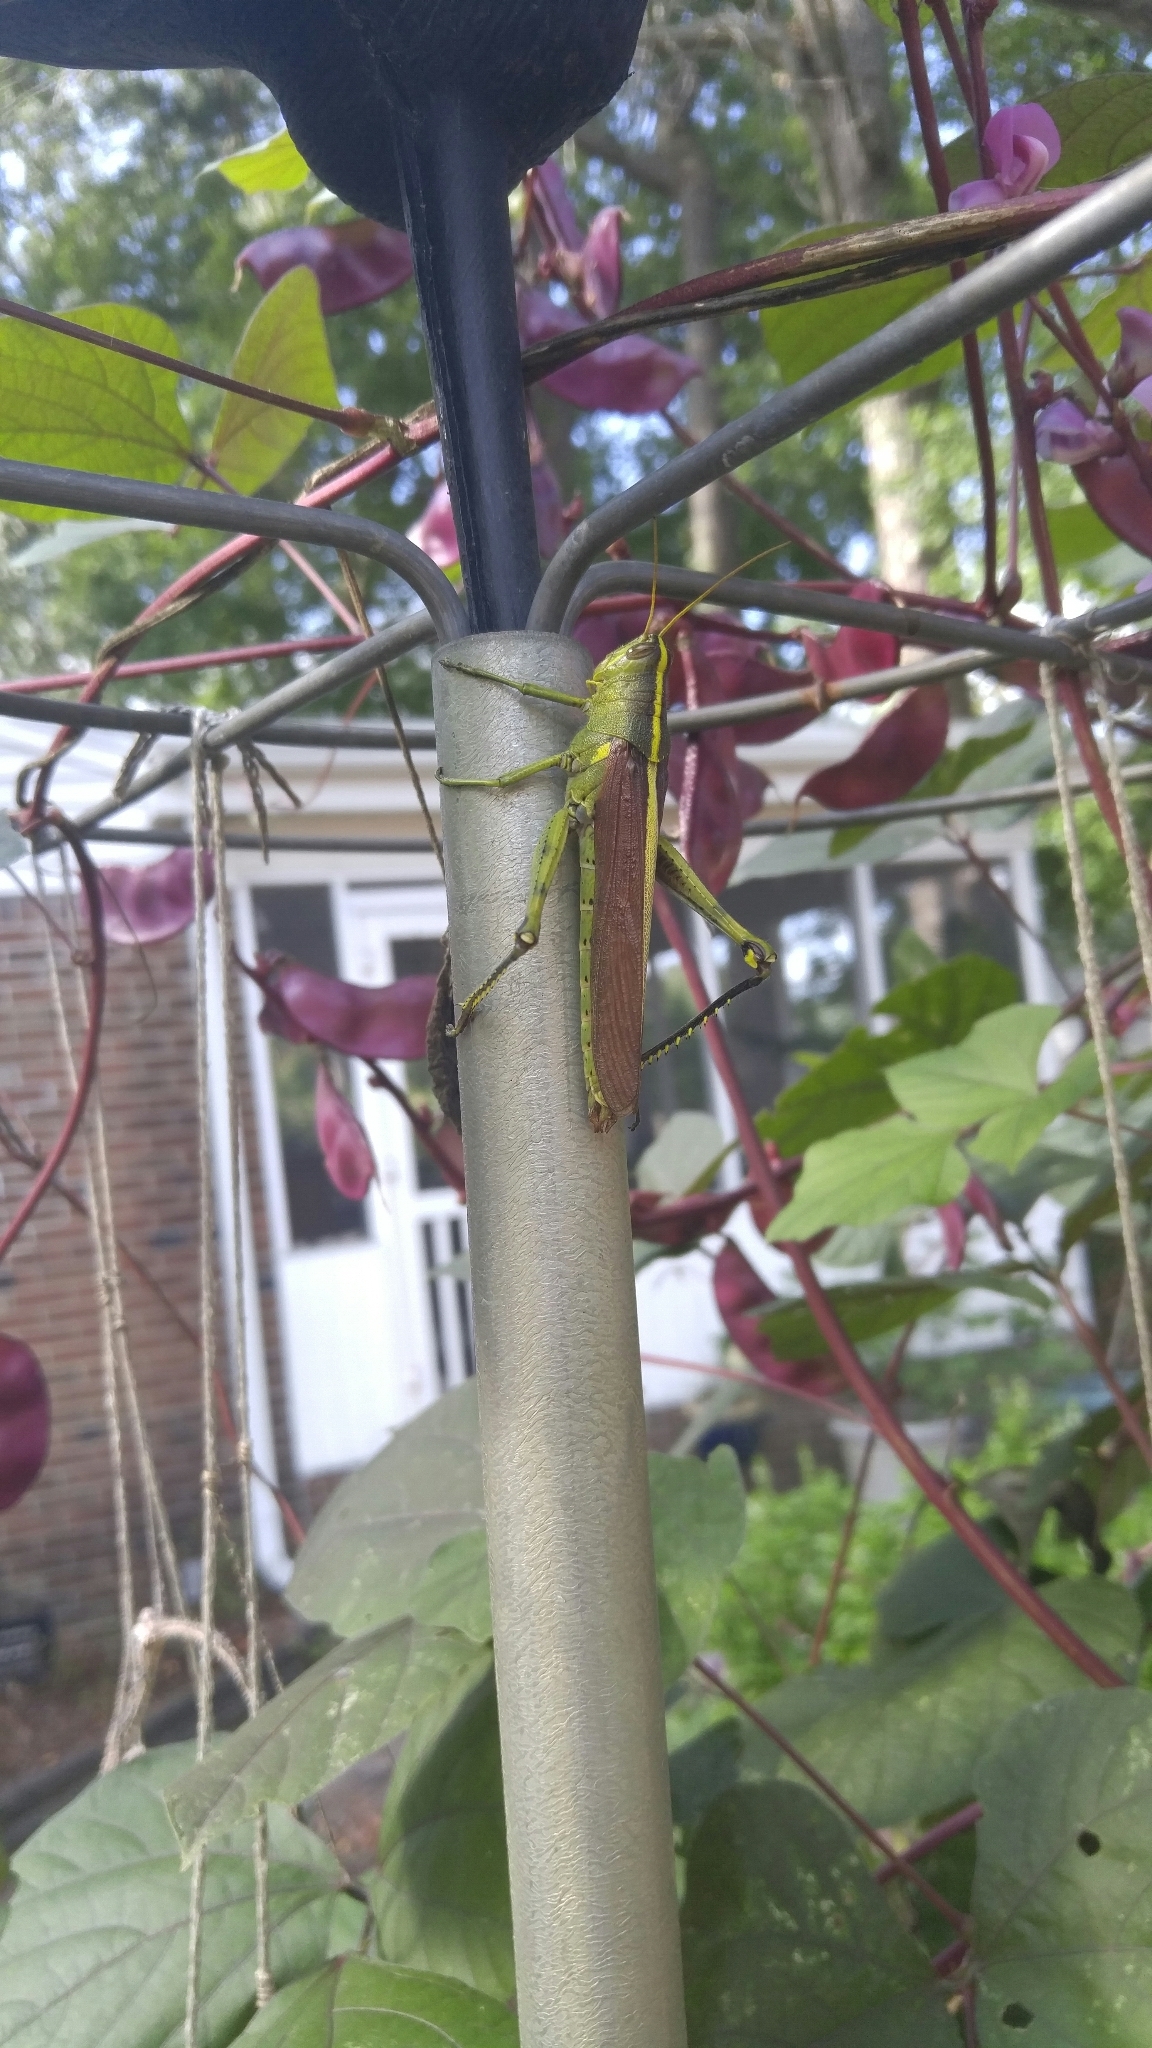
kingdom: Animalia
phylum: Arthropoda
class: Insecta
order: Orthoptera
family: Acrididae
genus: Schistocerca
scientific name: Schistocerca obscura
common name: Obscure bird grasshopper
